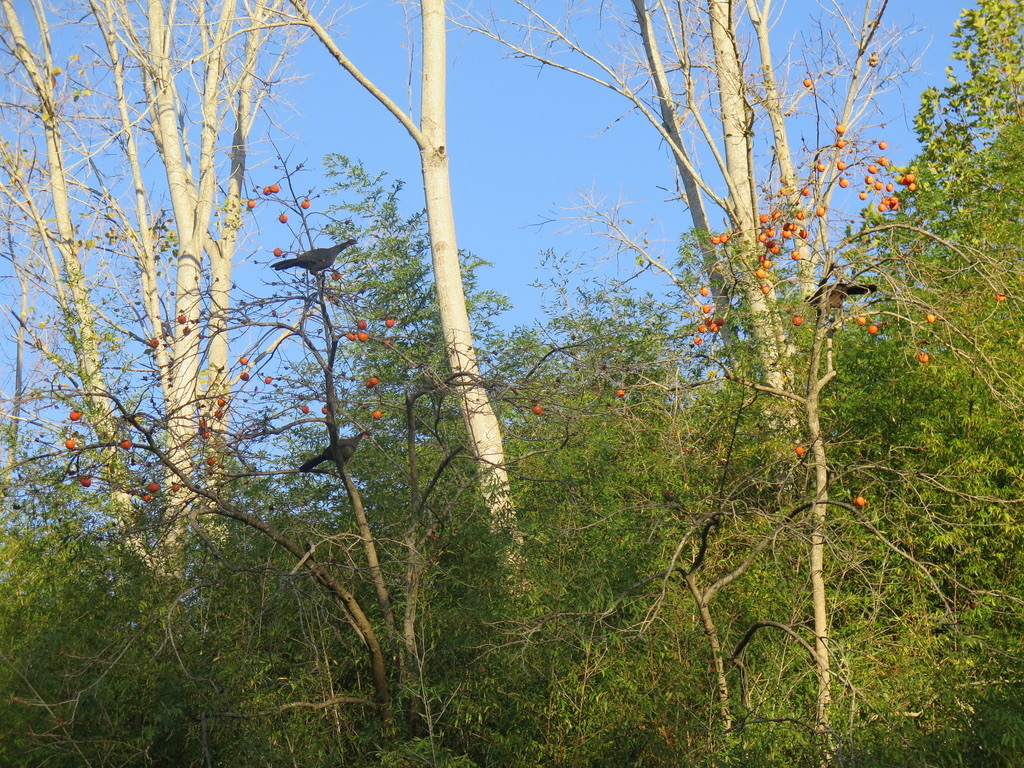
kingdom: Animalia
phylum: Chordata
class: Aves
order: Galliformes
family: Cracidae
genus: Penelope
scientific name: Penelope obscura
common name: Dusky-legged guan
